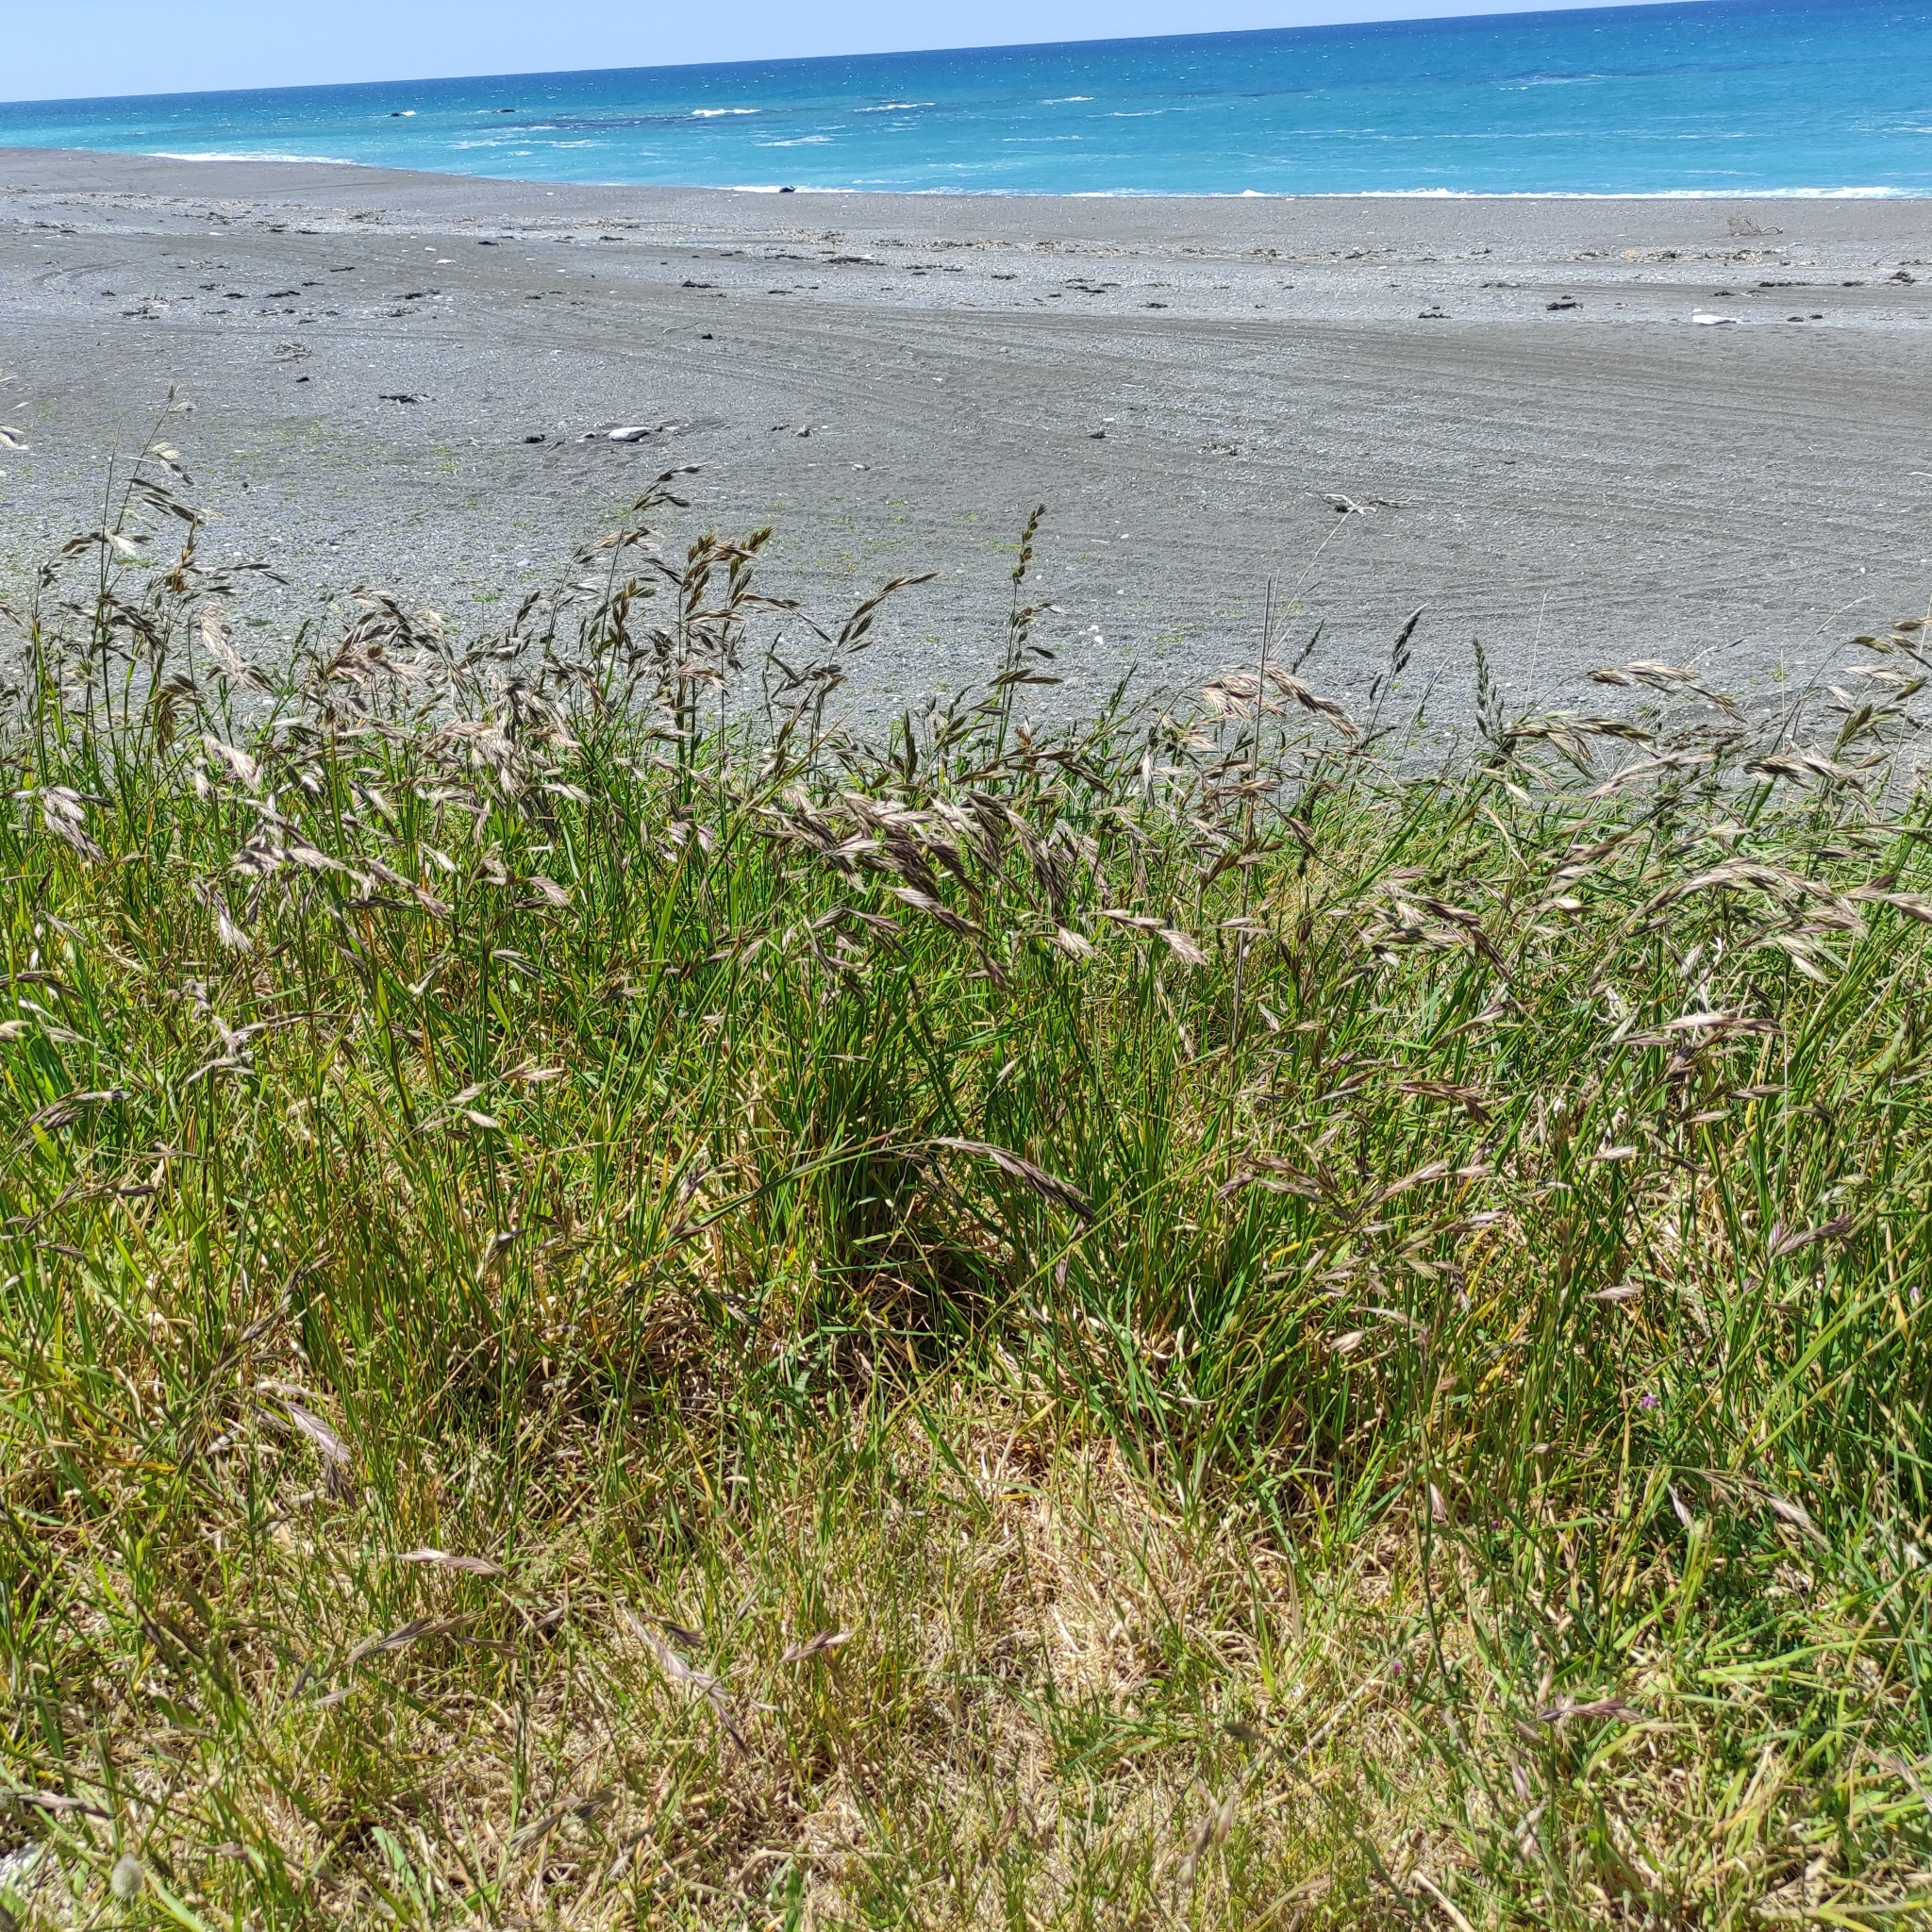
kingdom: Plantae
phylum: Tracheophyta
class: Liliopsida
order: Poales
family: Poaceae
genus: Bromus
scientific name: Bromus catharticus
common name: Rescuegrass
